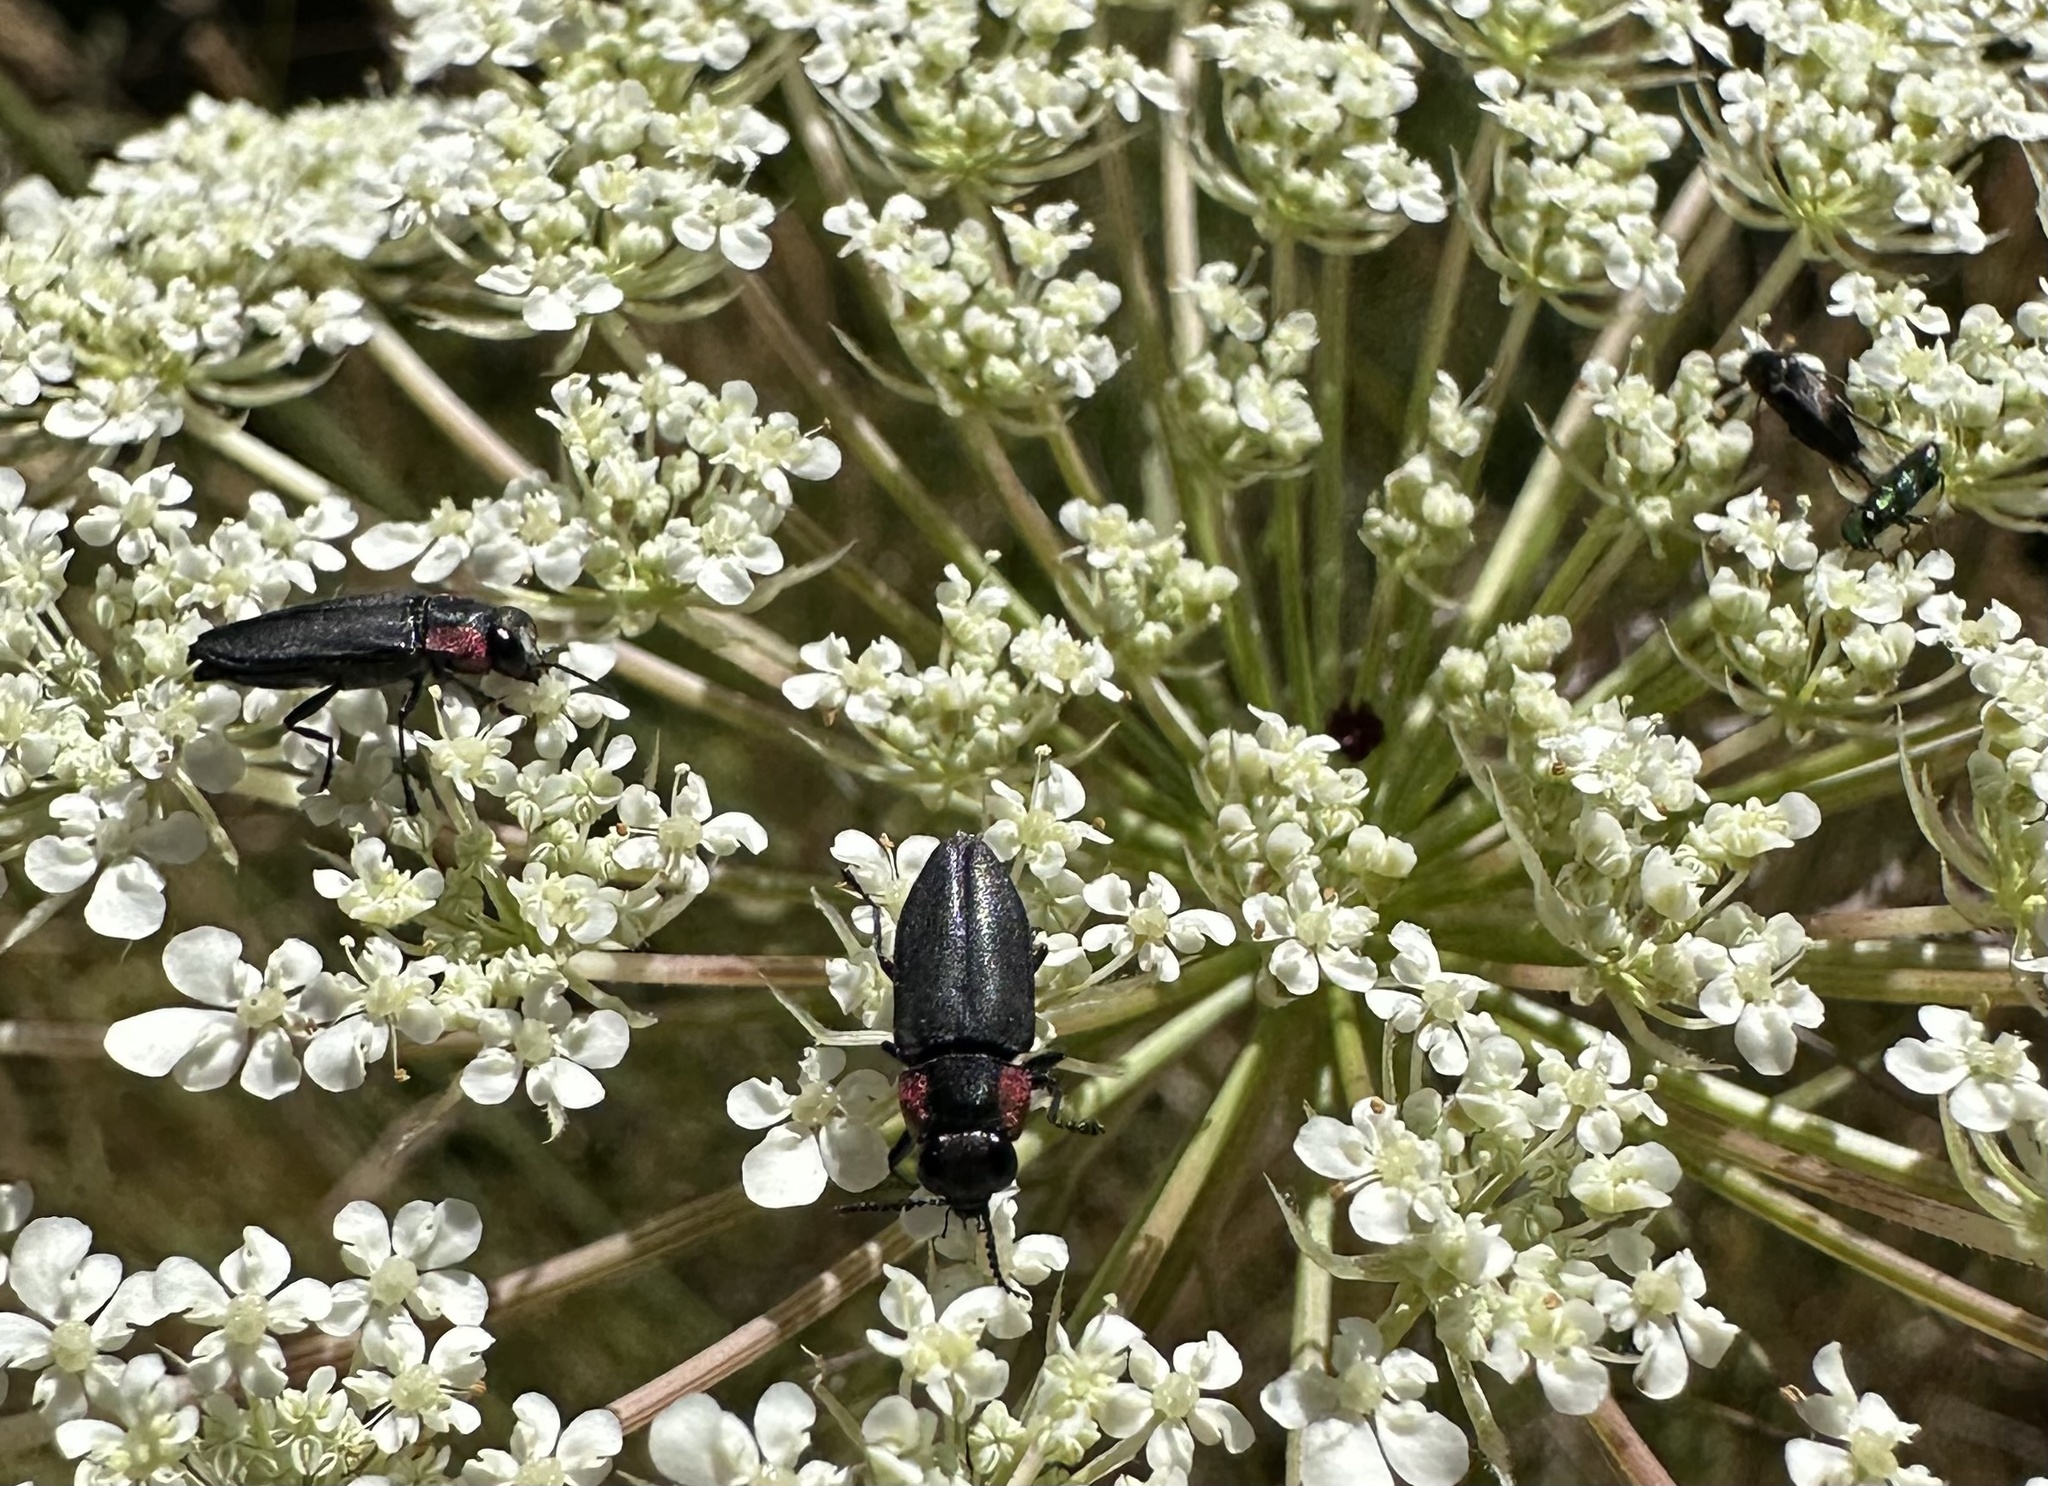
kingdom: Animalia
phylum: Arthropoda
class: Insecta
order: Coleoptera
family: Buprestidae
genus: Romanophora
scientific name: Romanophora verecunda
